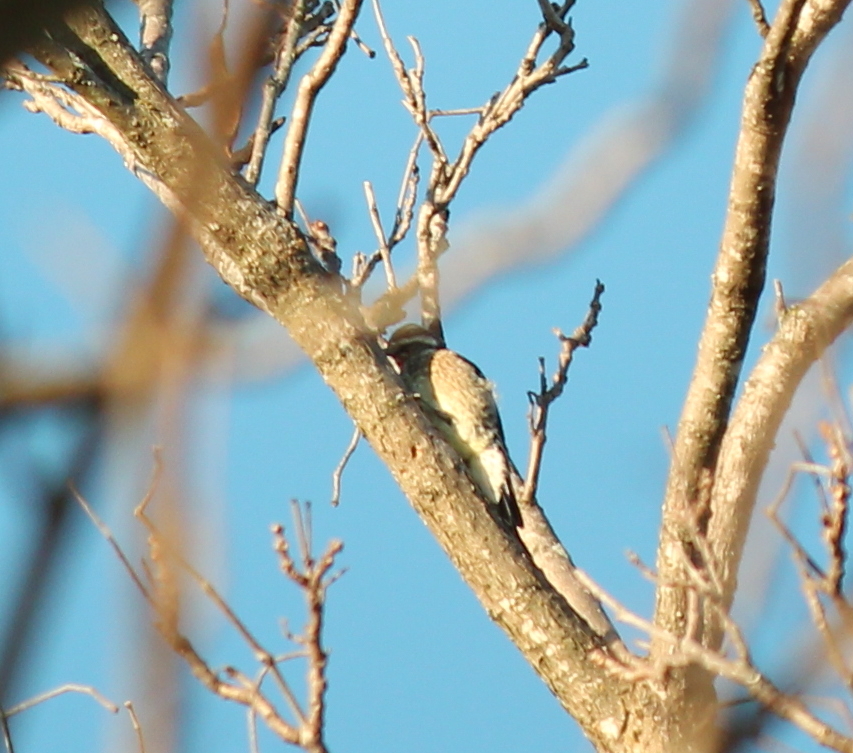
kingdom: Animalia
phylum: Chordata
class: Aves
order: Piciformes
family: Picidae
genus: Sphyrapicus
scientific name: Sphyrapicus varius
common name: Yellow-bellied sapsucker
